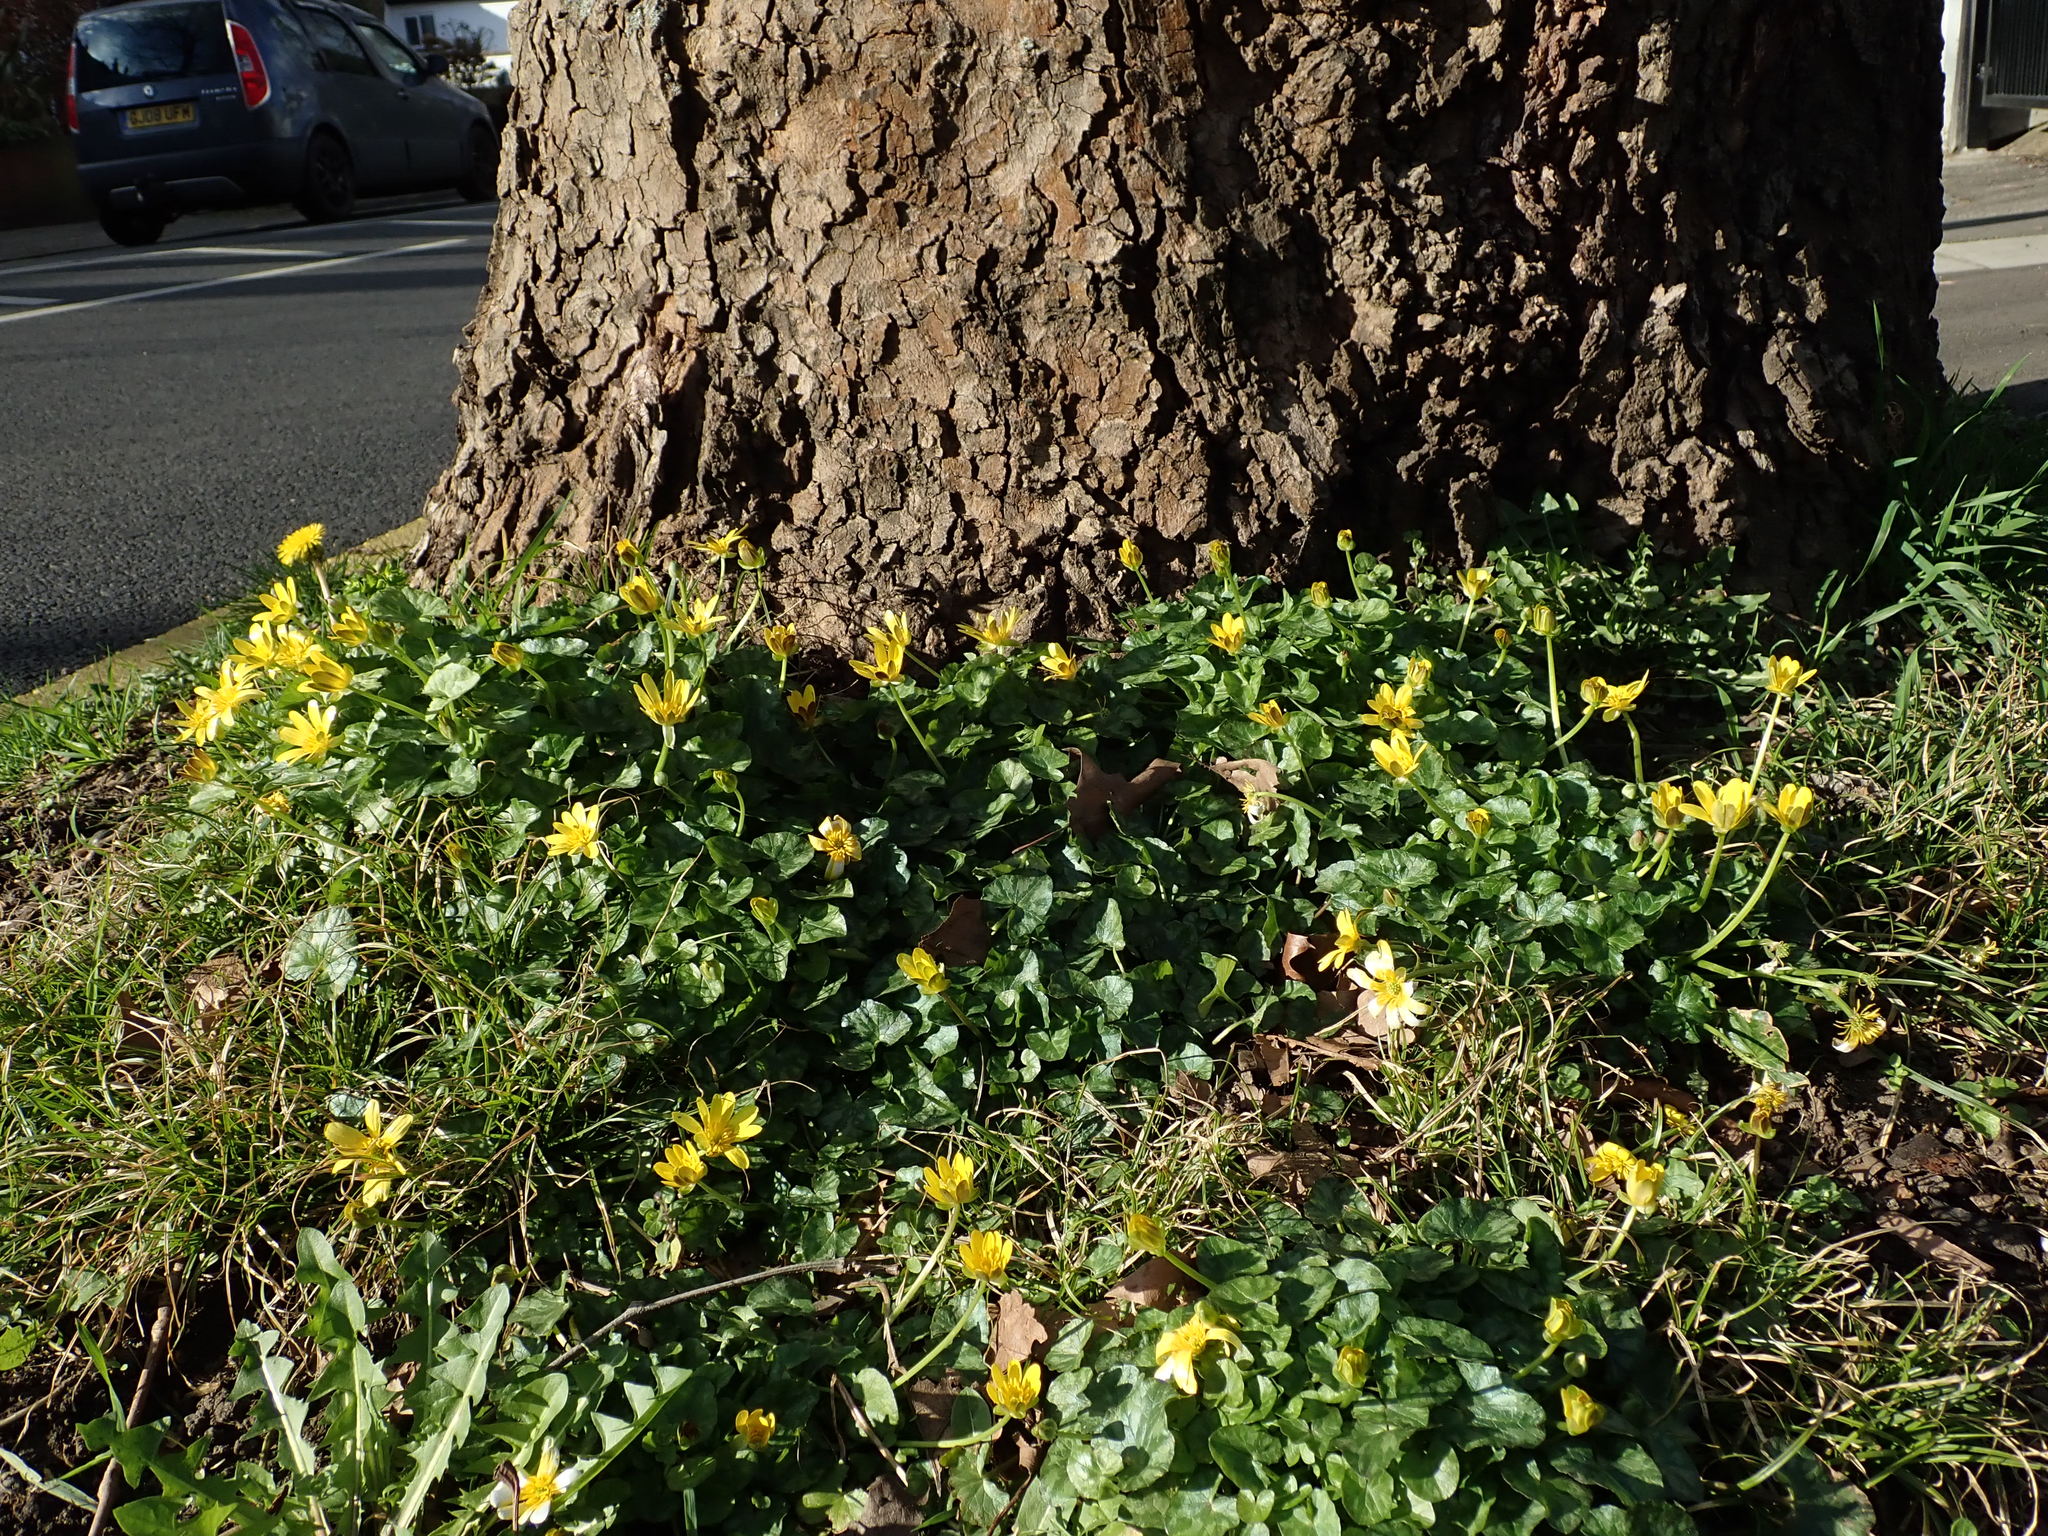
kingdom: Plantae
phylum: Tracheophyta
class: Magnoliopsida
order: Ranunculales
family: Ranunculaceae
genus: Ficaria
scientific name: Ficaria verna
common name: Lesser celandine
